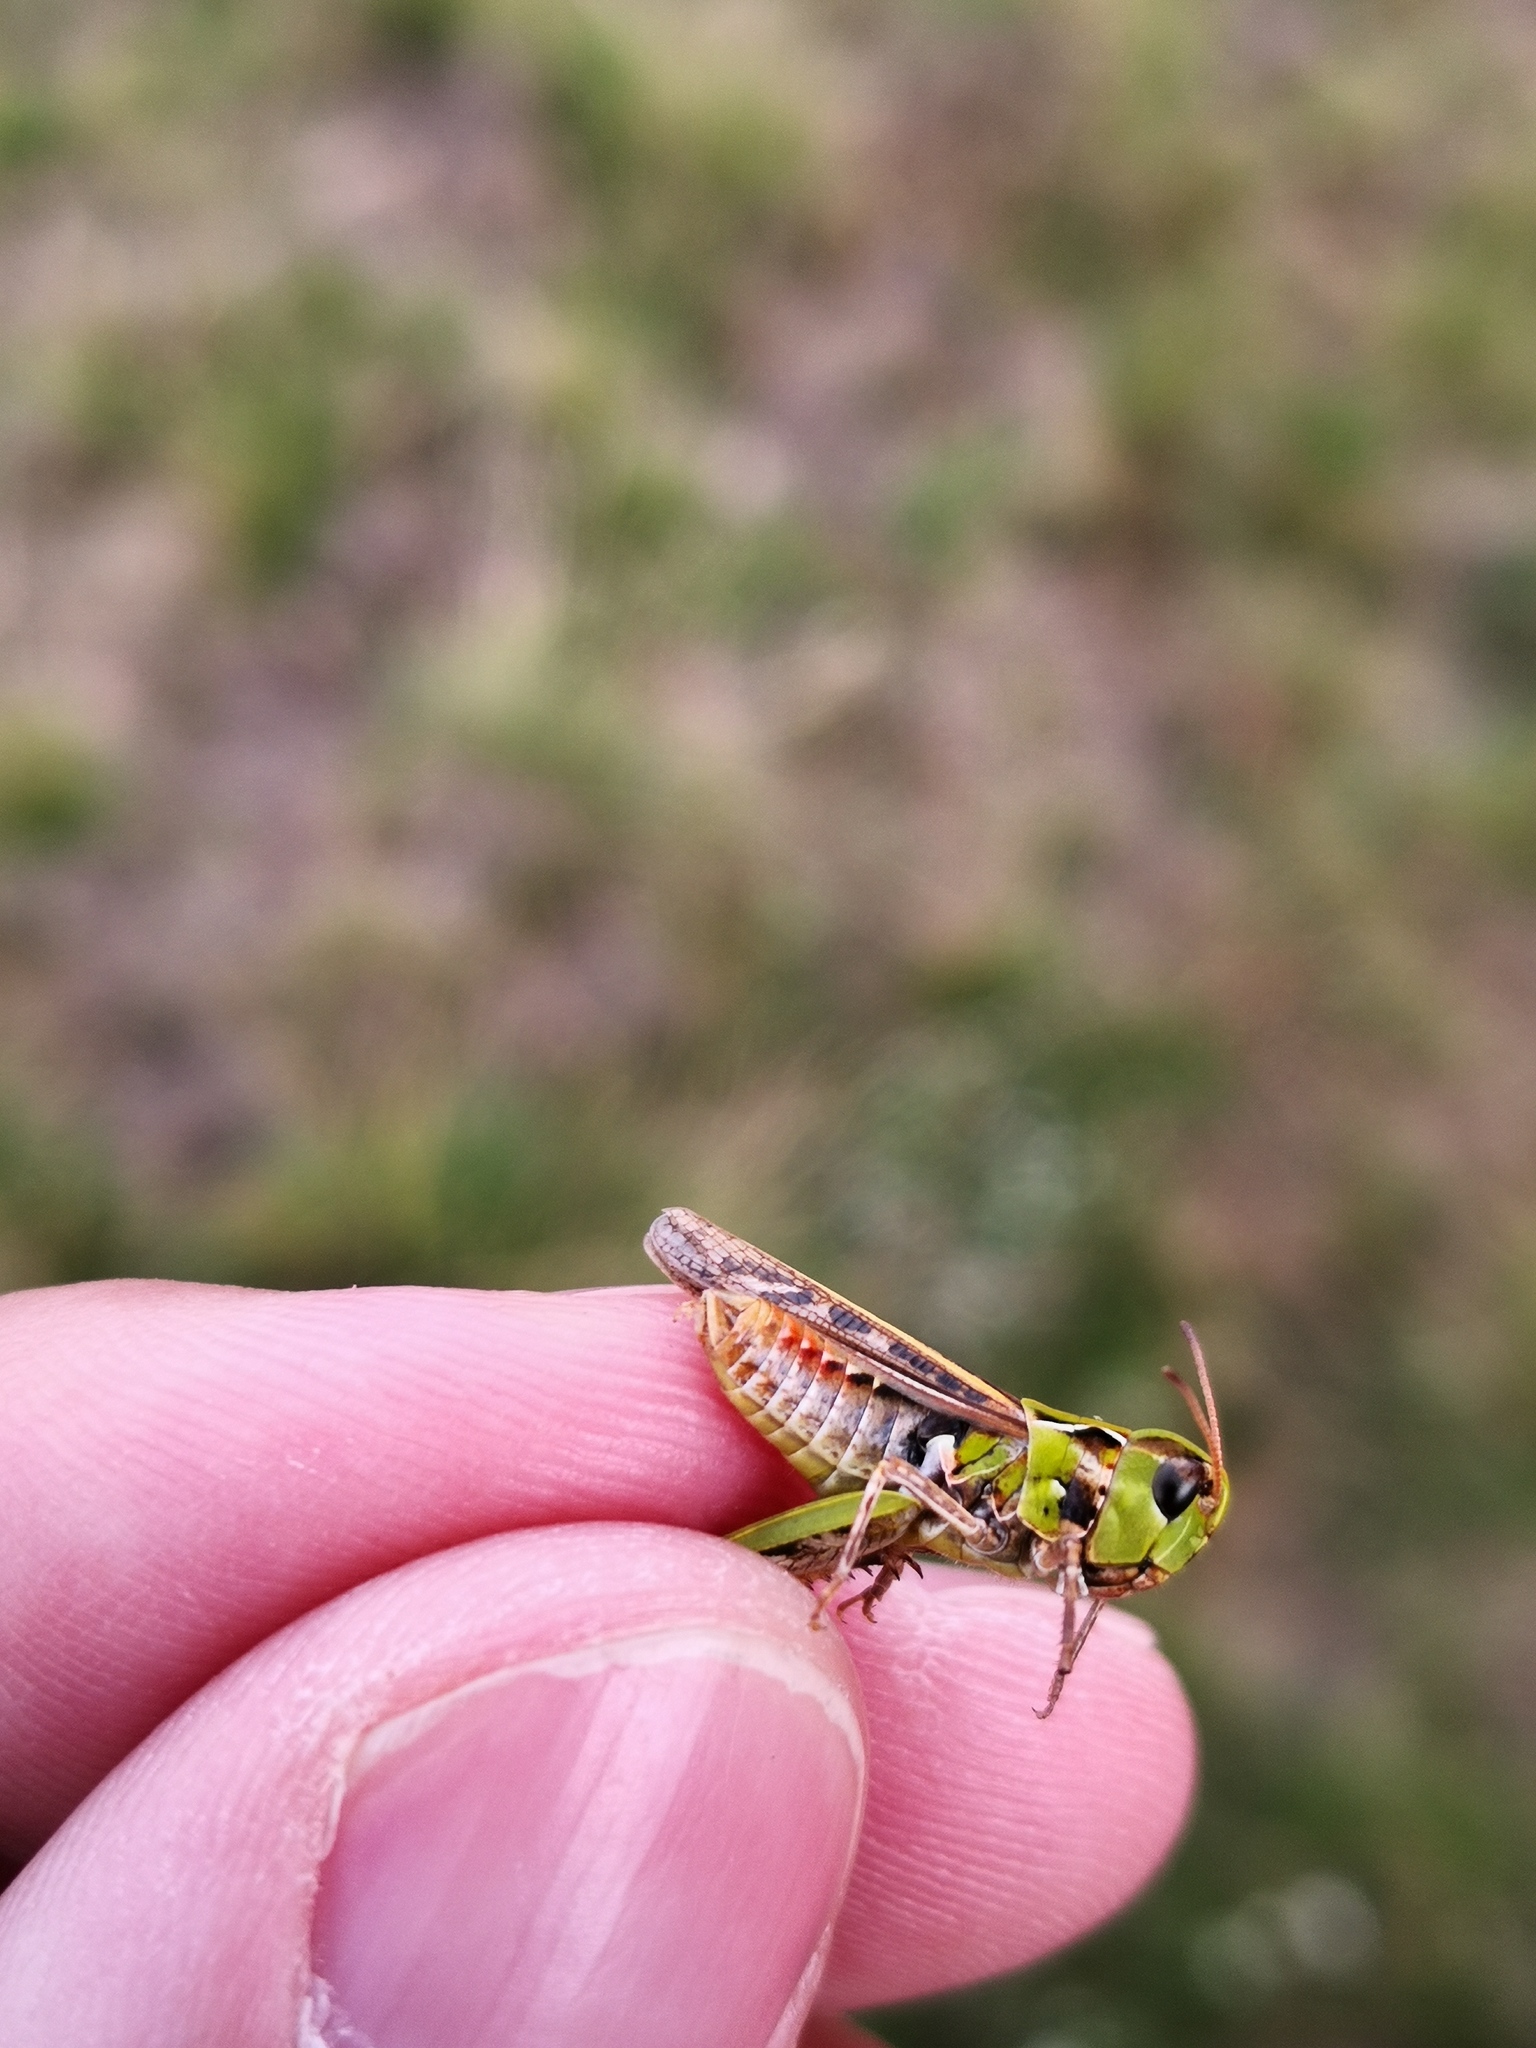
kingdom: Animalia
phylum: Arthropoda
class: Insecta
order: Orthoptera
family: Acrididae
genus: Myrmeleotettix
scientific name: Myrmeleotettix maculatus
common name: Mottled grasshopper
